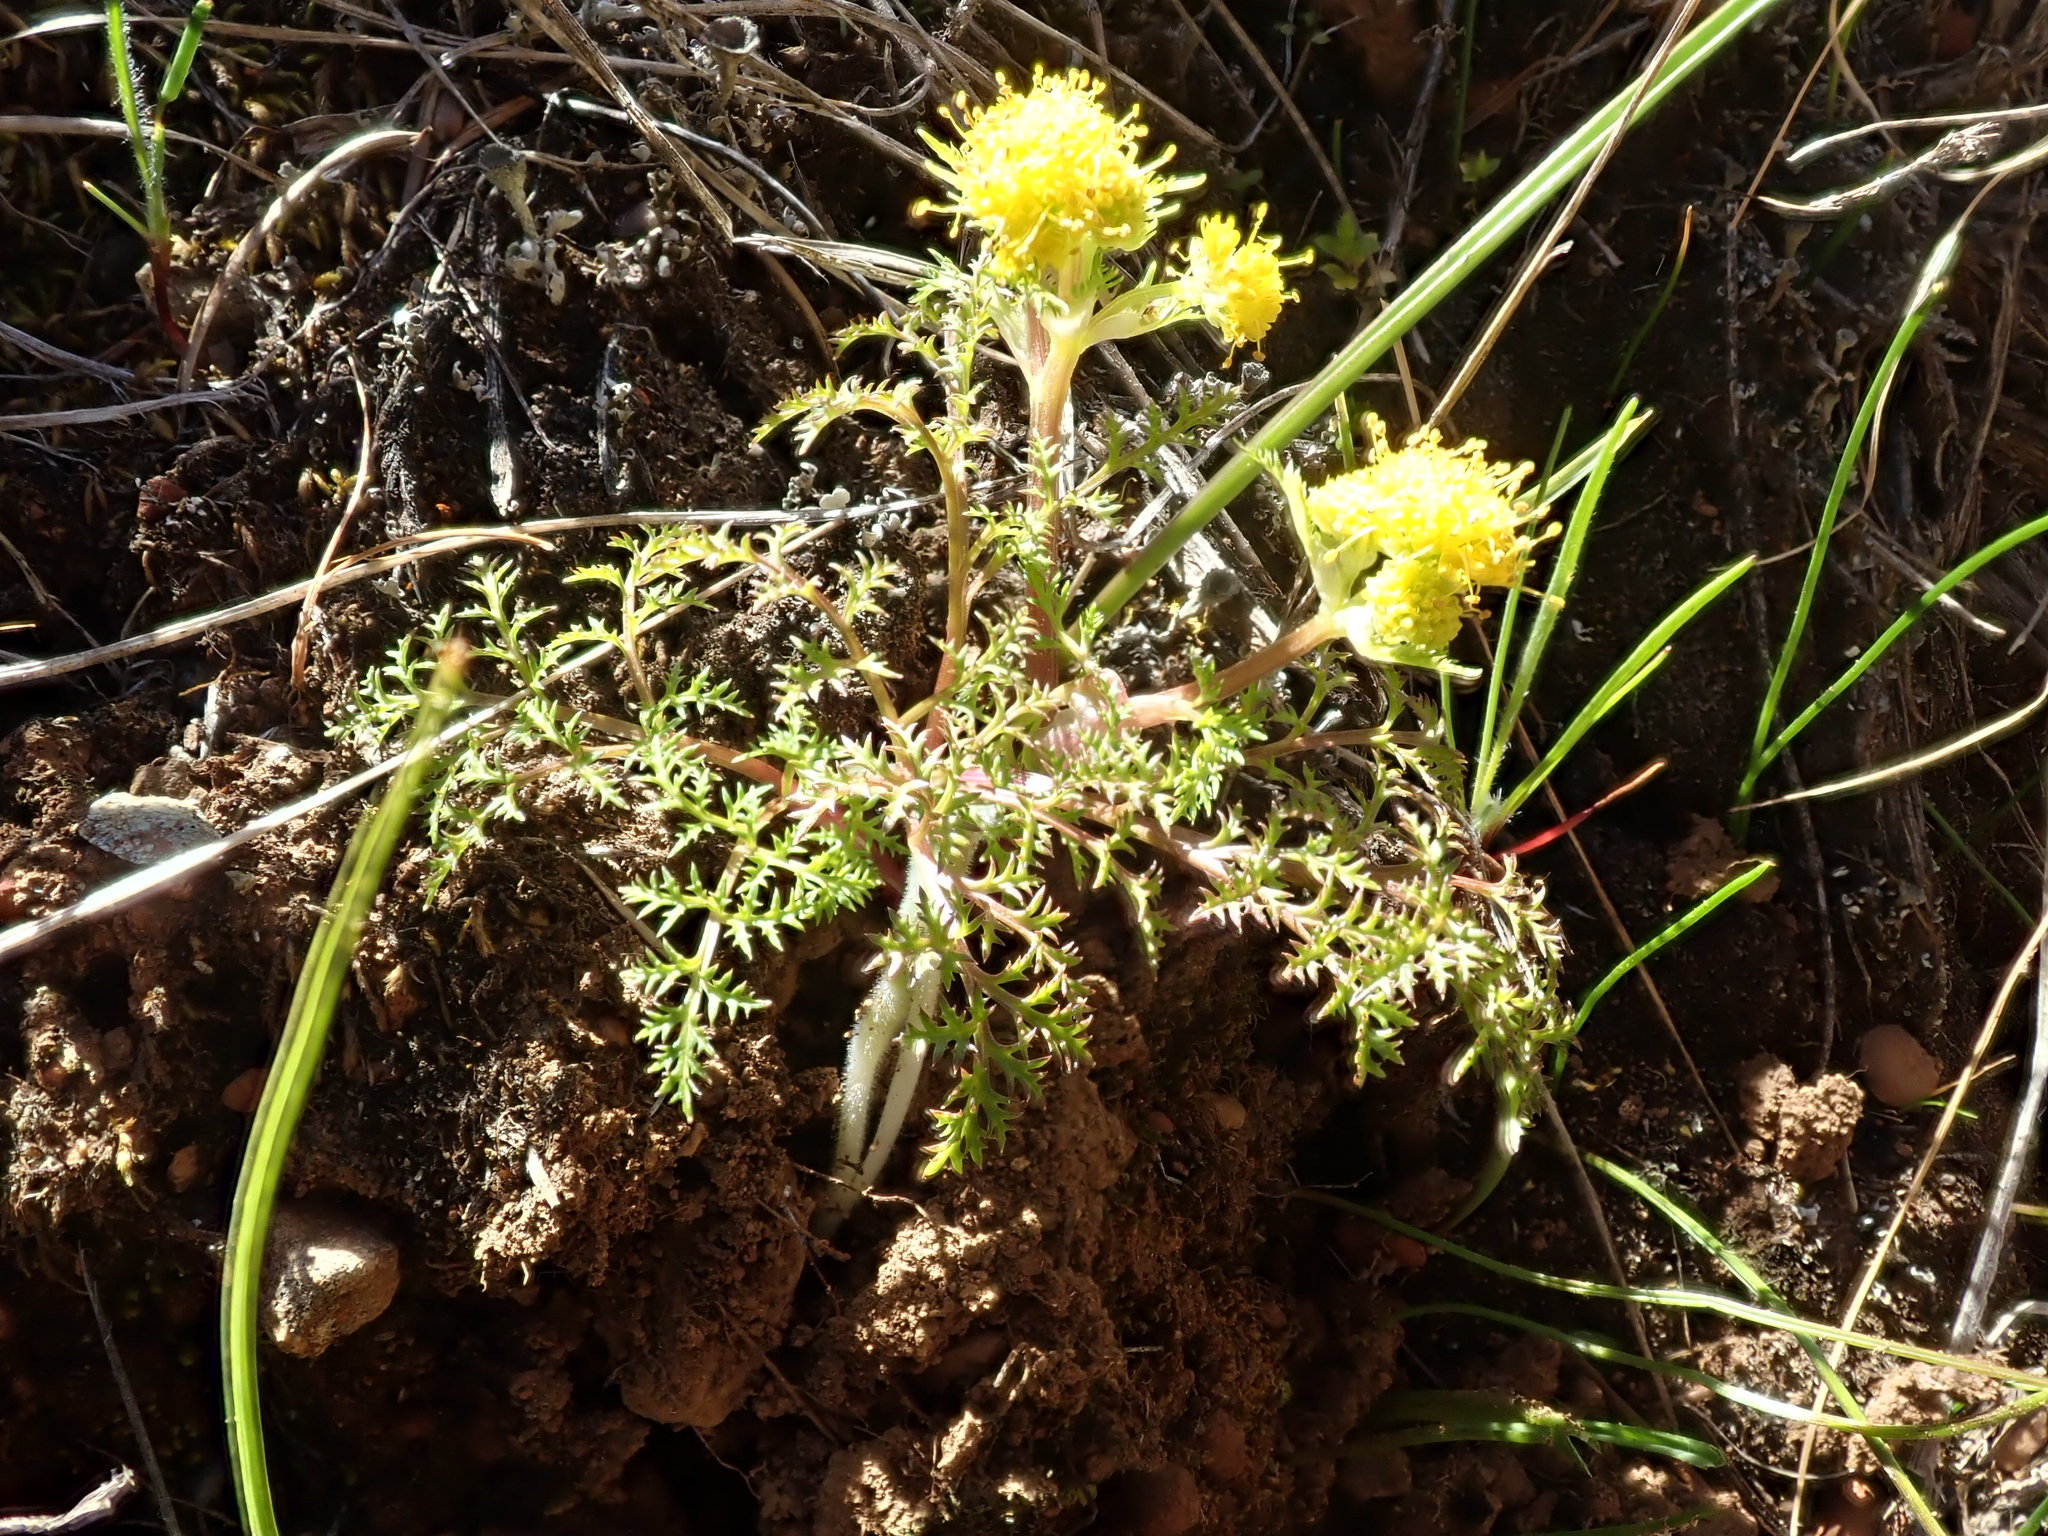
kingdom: Plantae
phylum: Tracheophyta
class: Magnoliopsida
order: Apiales
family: Apiaceae
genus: Sanicula
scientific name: Sanicula tuberosa
